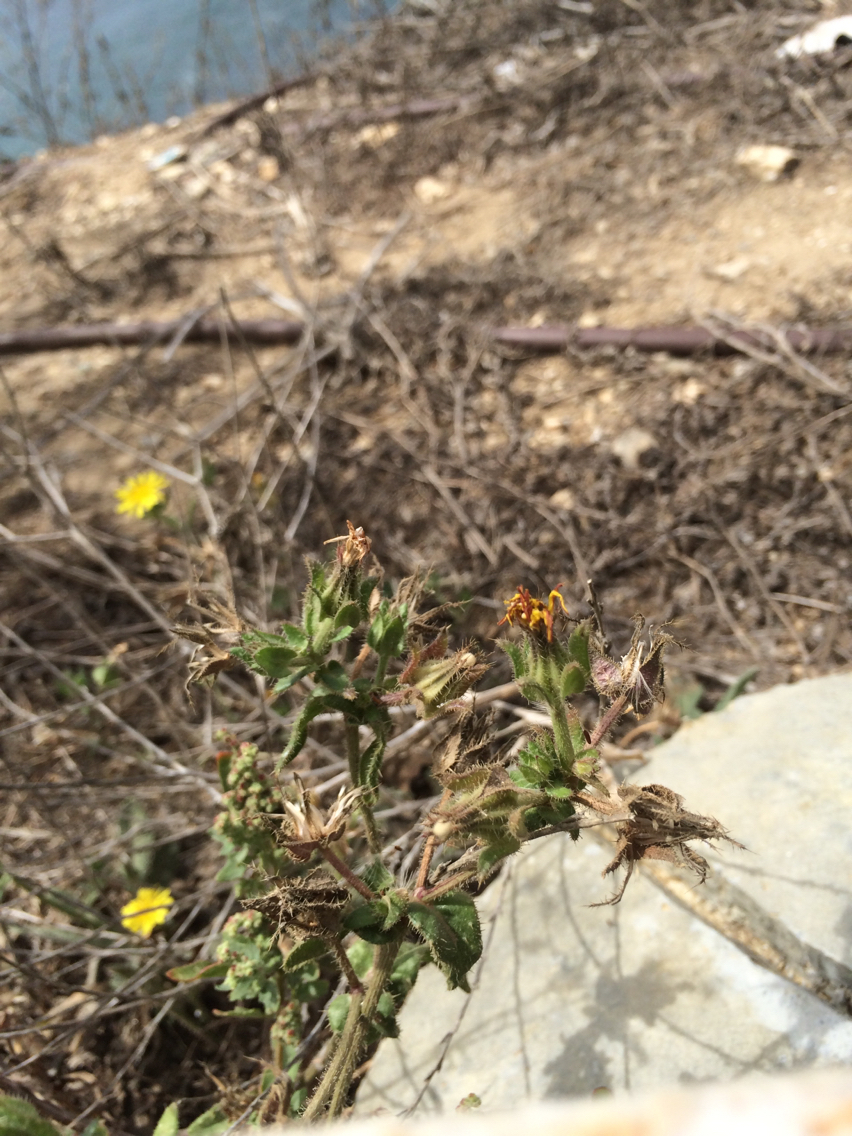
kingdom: Plantae
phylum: Tracheophyta
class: Magnoliopsida
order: Asterales
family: Asteraceae
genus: Helminthotheca
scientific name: Helminthotheca echioides
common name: Ox-tongue
